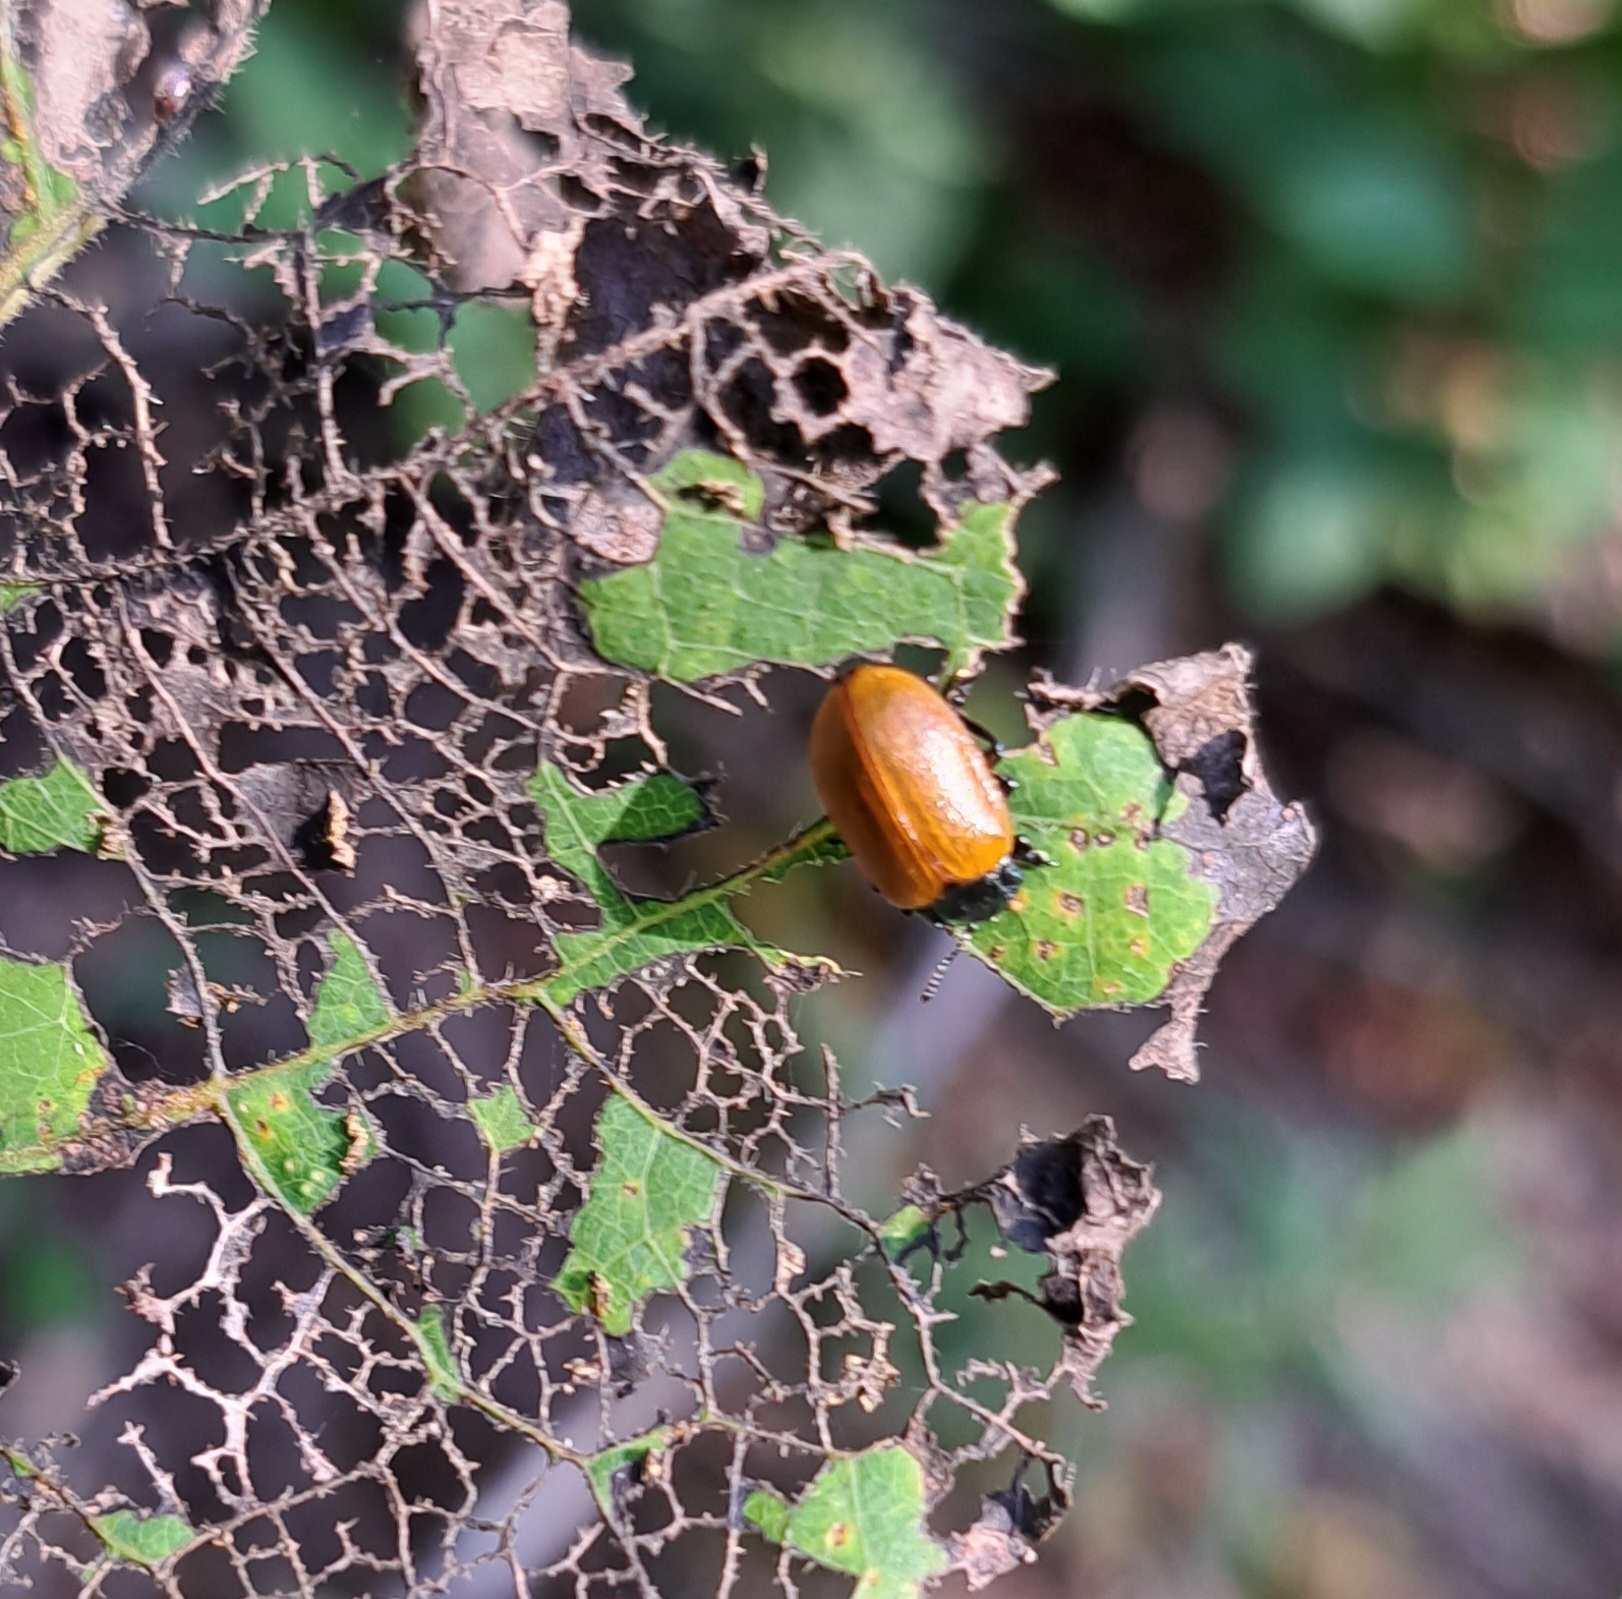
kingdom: Animalia
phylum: Arthropoda
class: Insecta
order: Coleoptera
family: Chrysomelidae
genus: Chrysomela
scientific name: Chrysomela populi
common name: Red poplar leaf beetle
